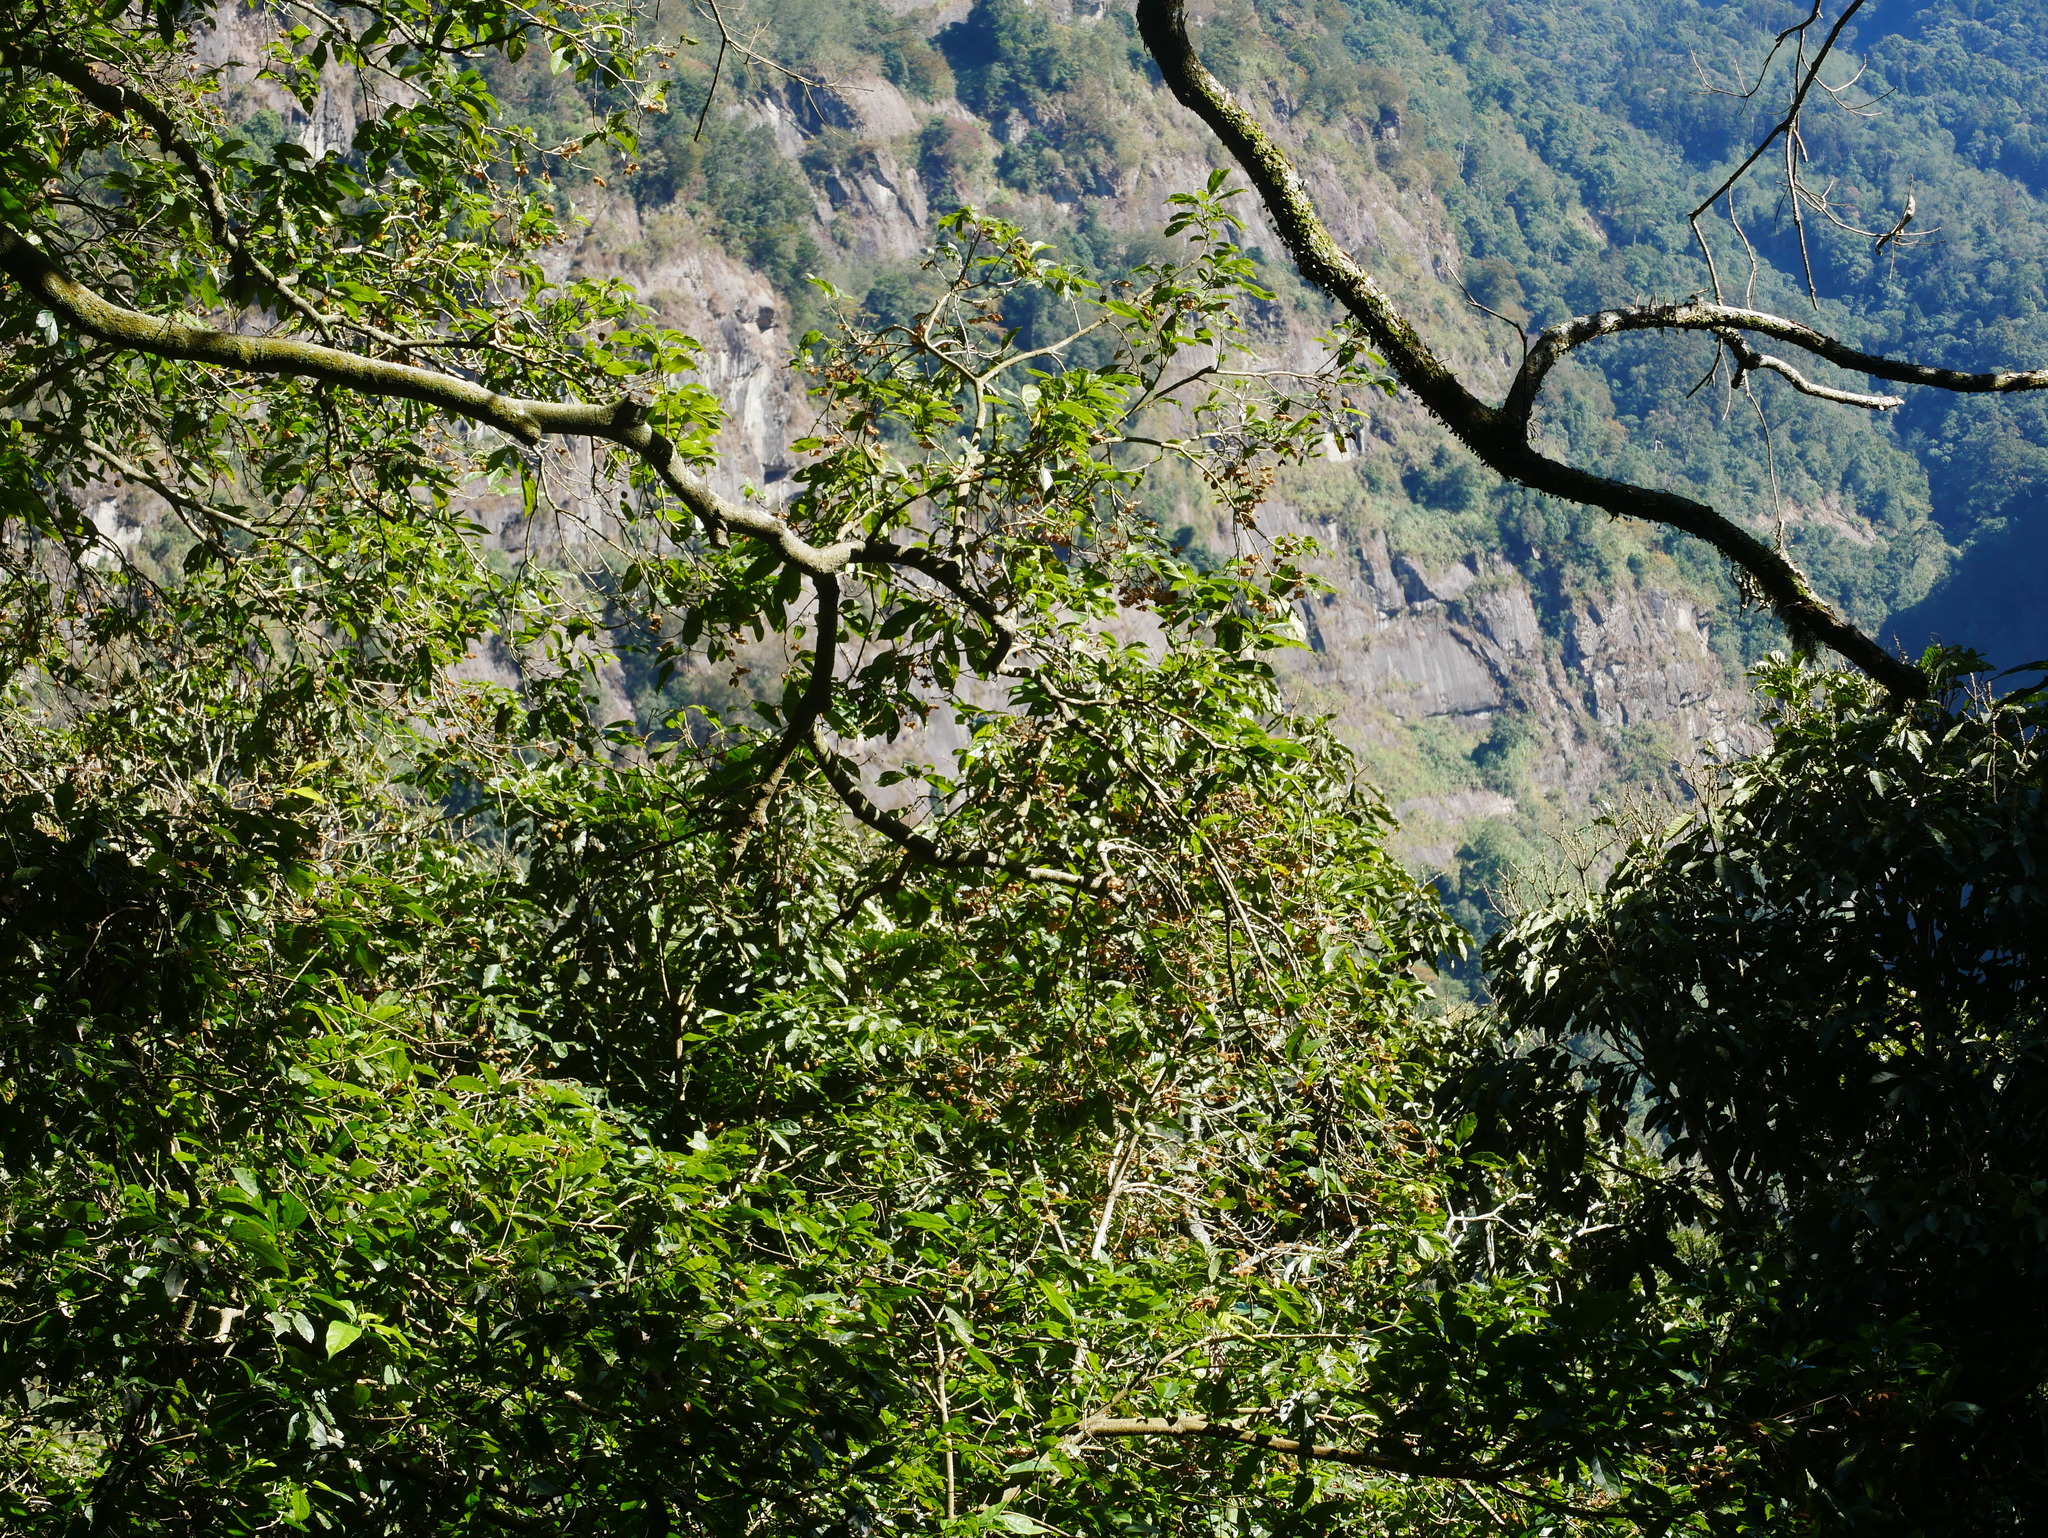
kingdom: Plantae
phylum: Tracheophyta
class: Magnoliopsida
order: Oxalidales
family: Elaeocarpaceae
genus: Sloanea
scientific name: Sloanea dasycarpa
